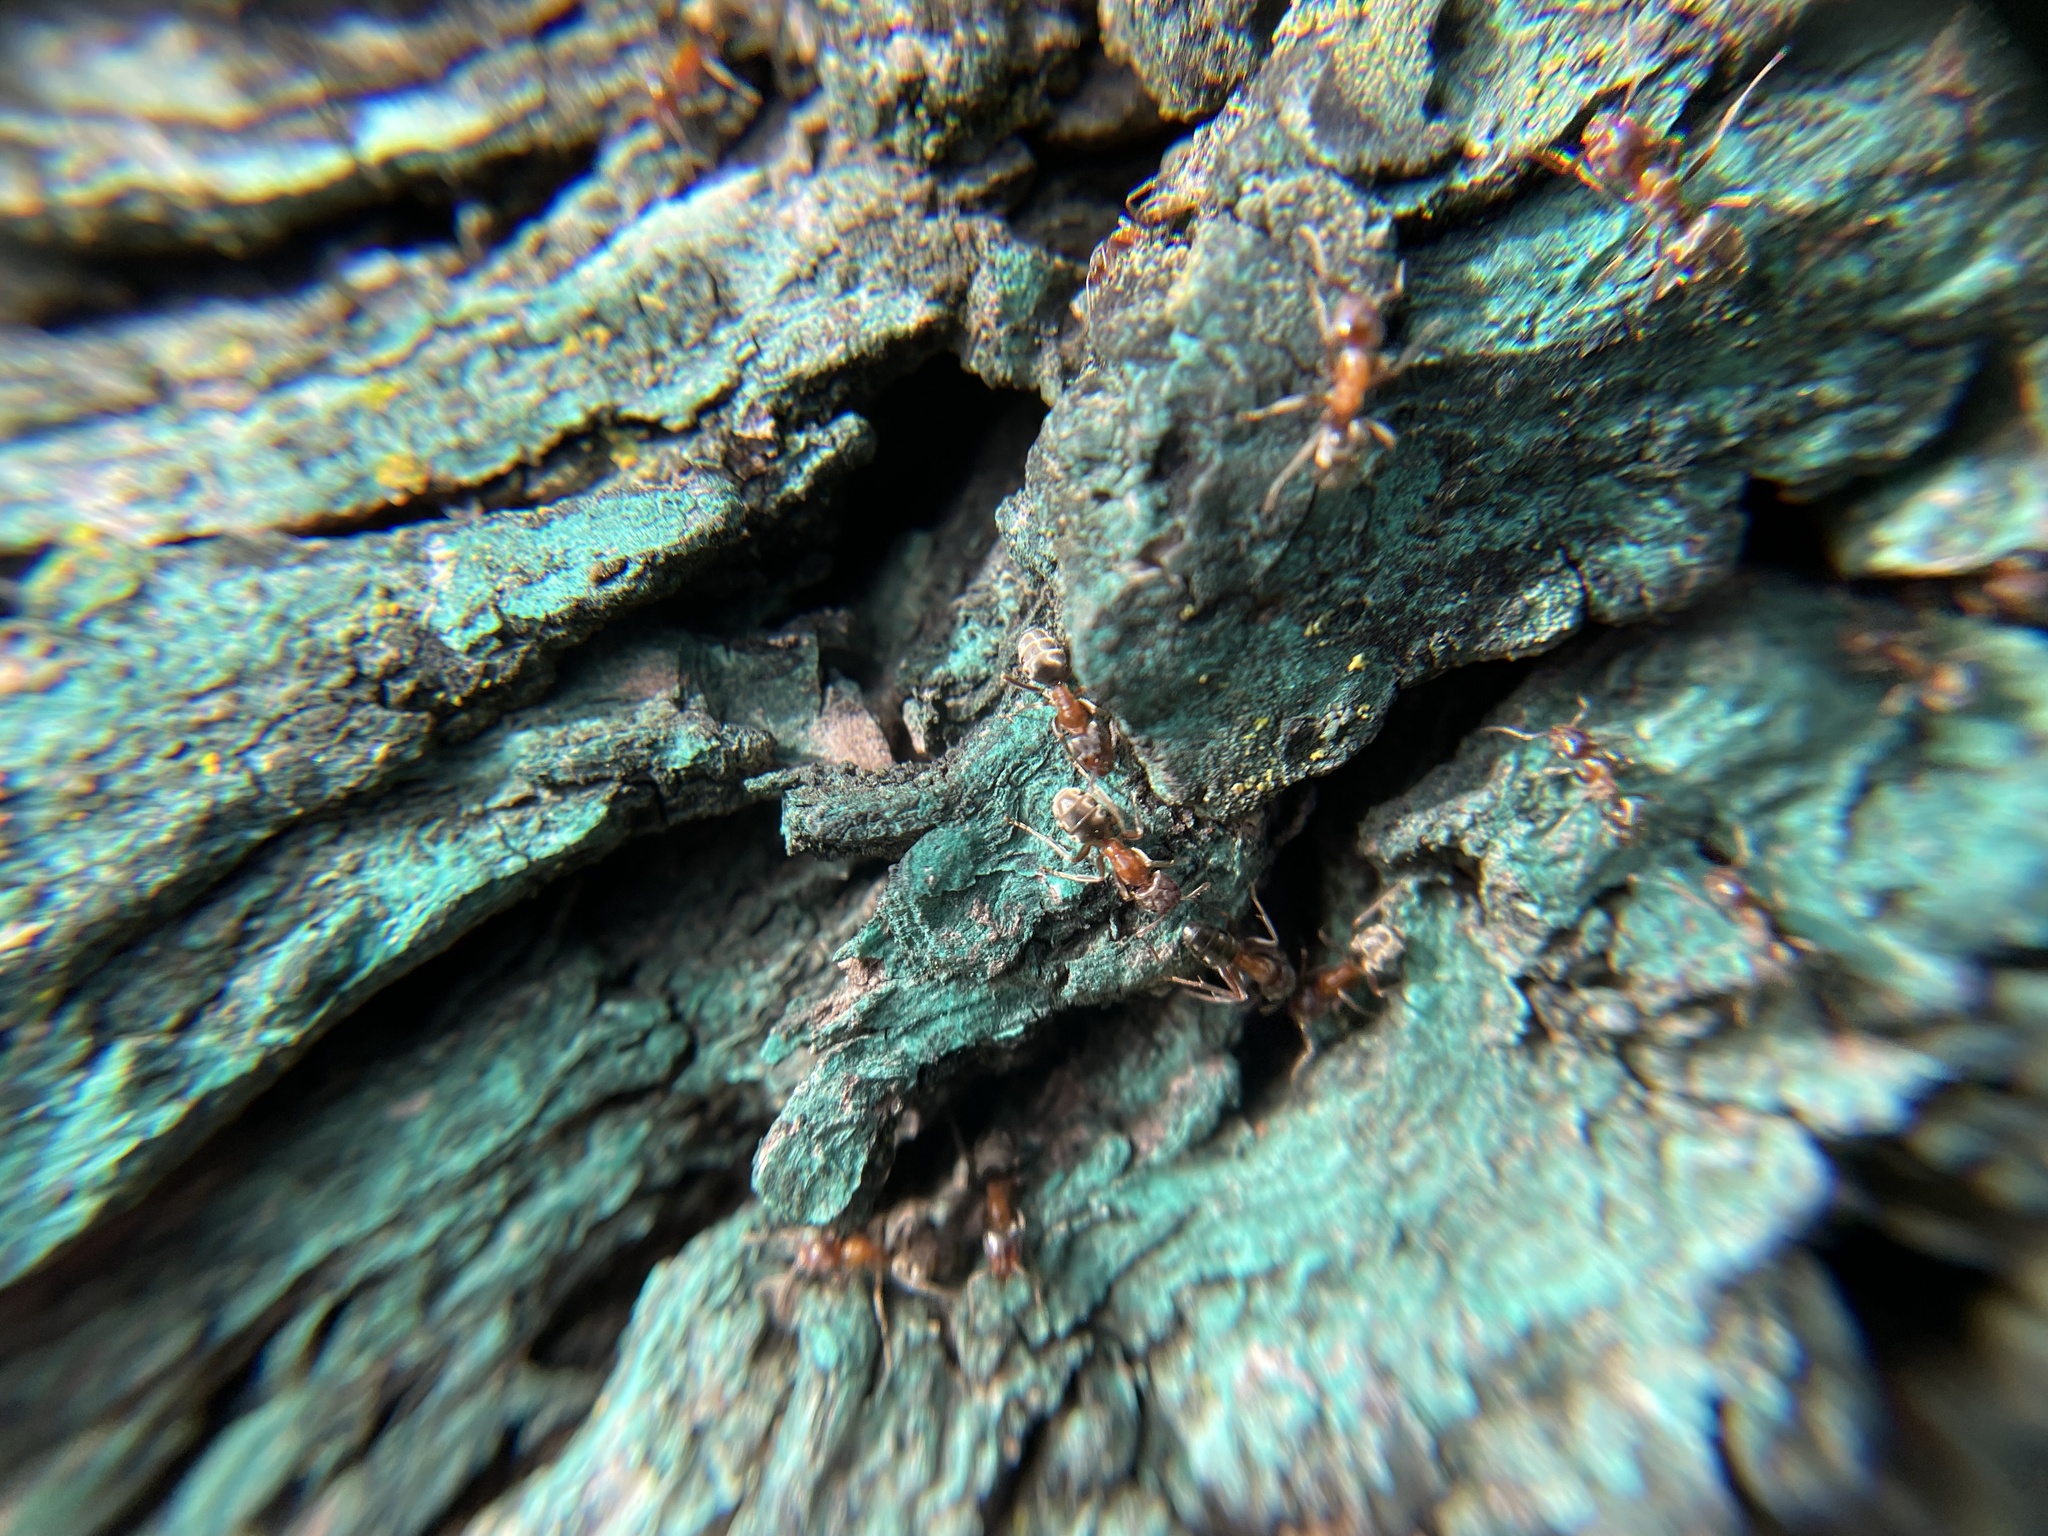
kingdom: Animalia
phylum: Arthropoda
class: Insecta
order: Hymenoptera
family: Formicidae
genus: Liometopum
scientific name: Liometopum occidentale
